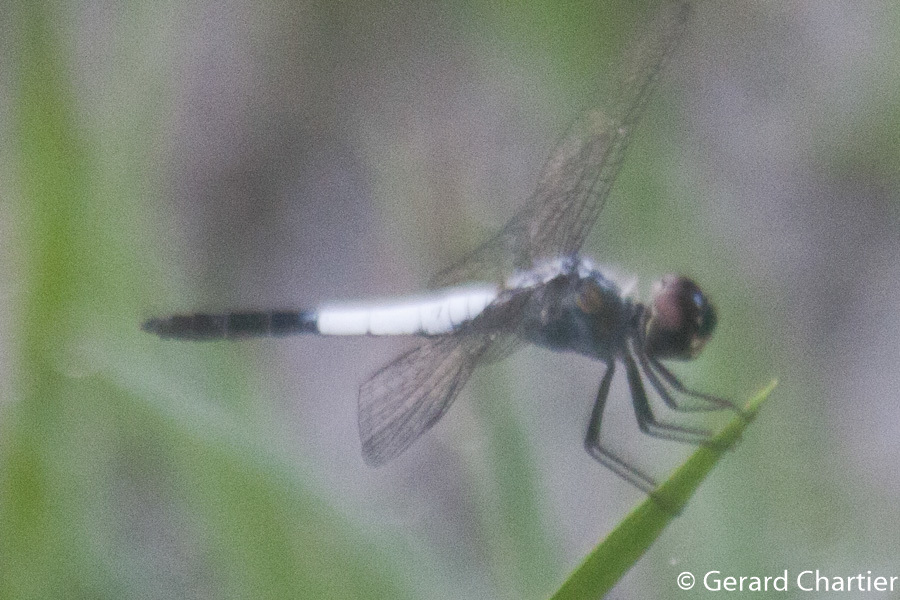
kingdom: Animalia
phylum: Arthropoda
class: Insecta
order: Odonata
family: Libellulidae
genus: Brachydiplax
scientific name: Brachydiplax farinosa
